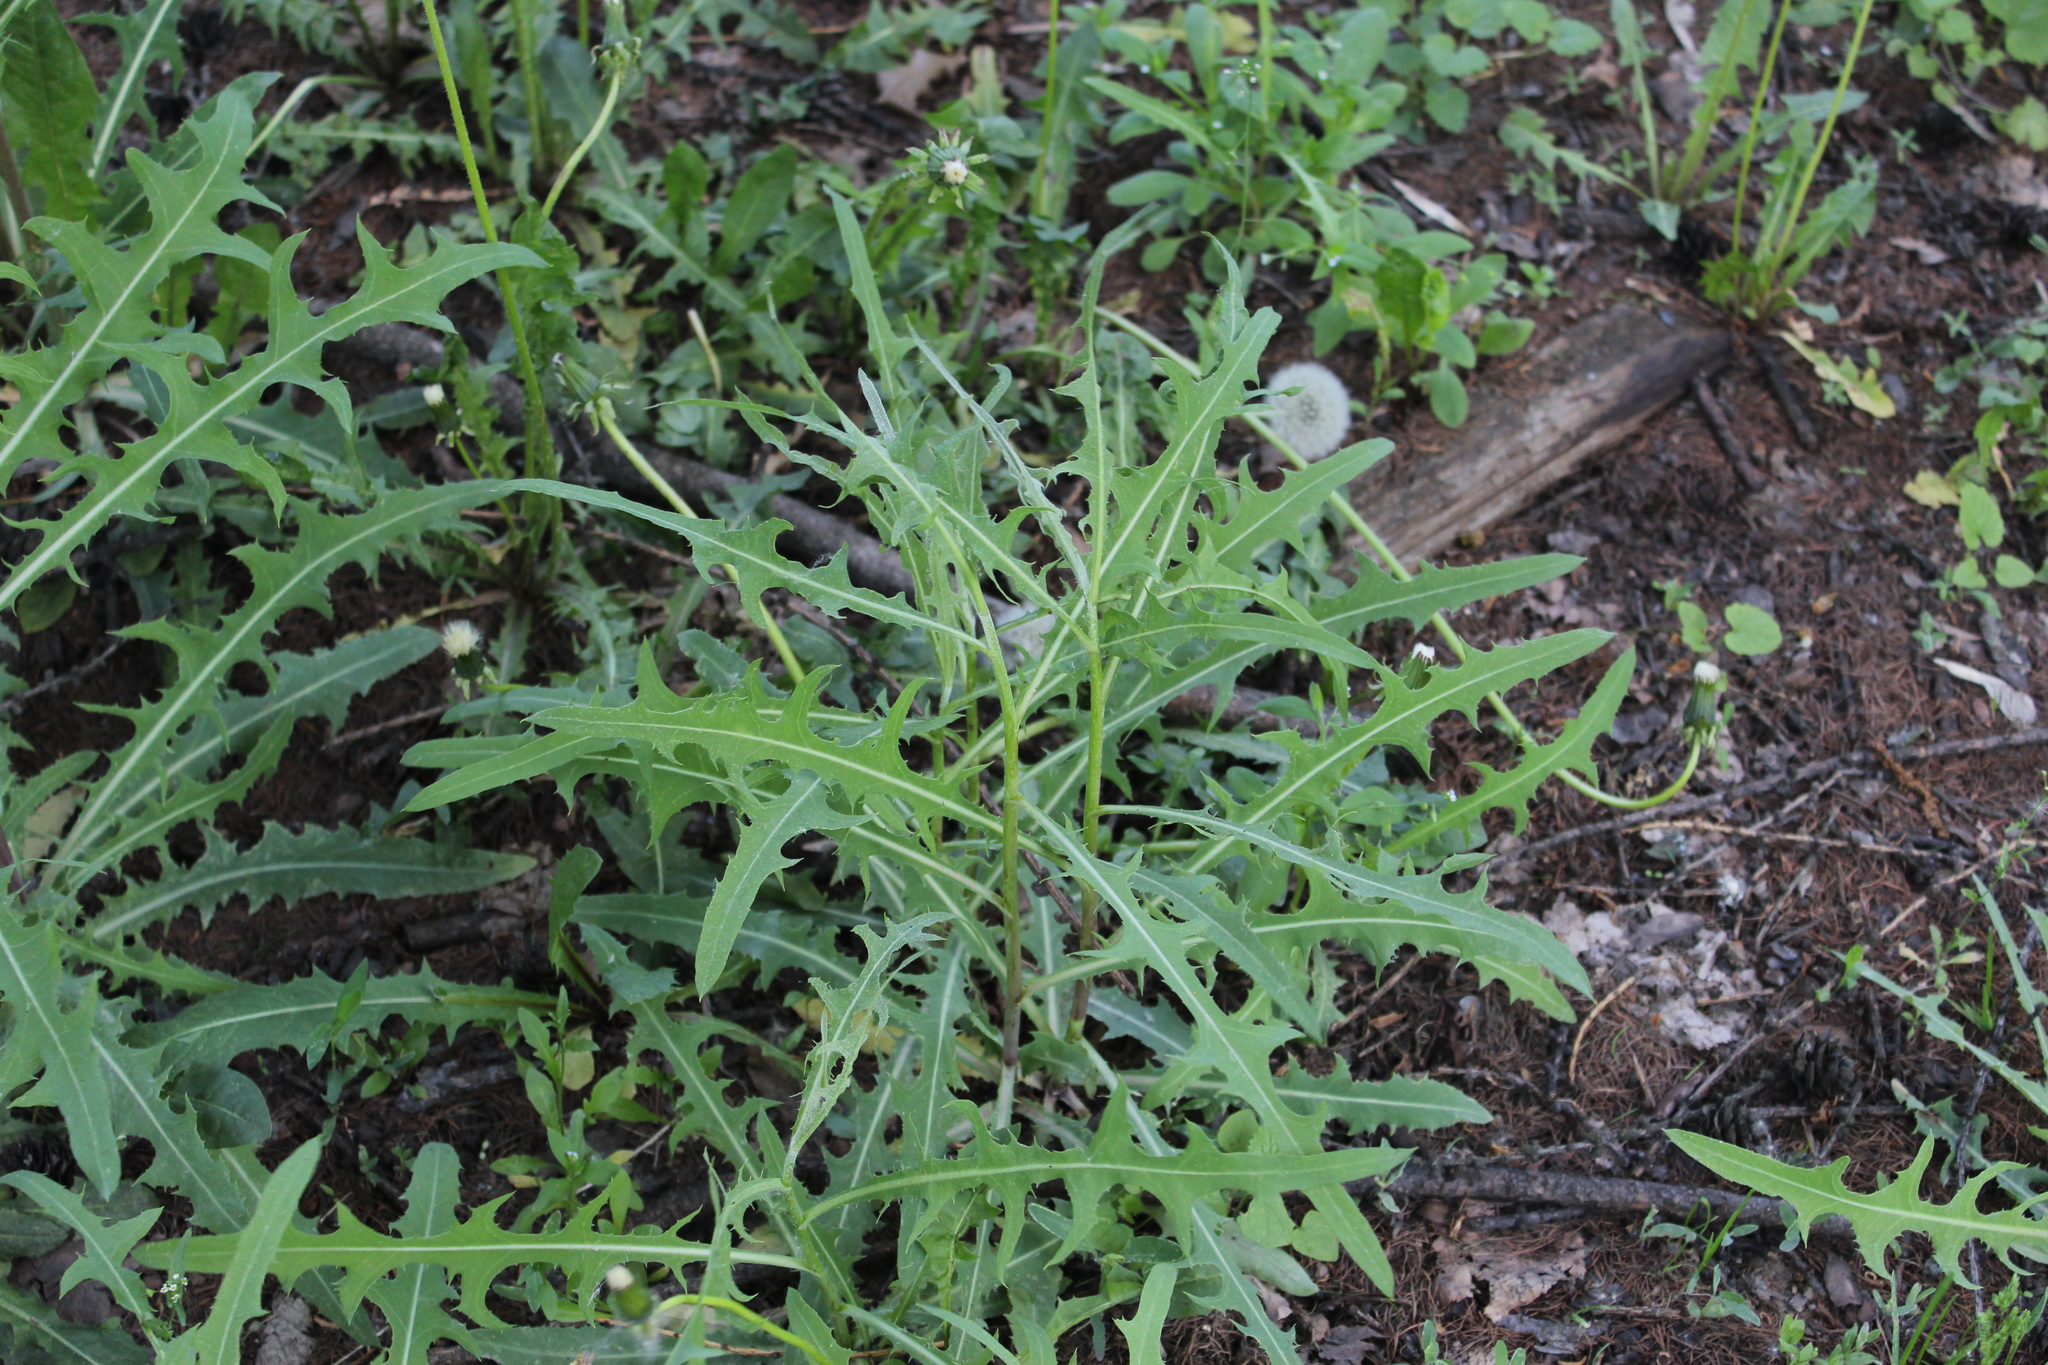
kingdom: Plantae
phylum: Tracheophyta
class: Magnoliopsida
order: Asterales
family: Asteraceae
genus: Lactuca
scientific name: Lactuca tatarica
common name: Blue lettuce
